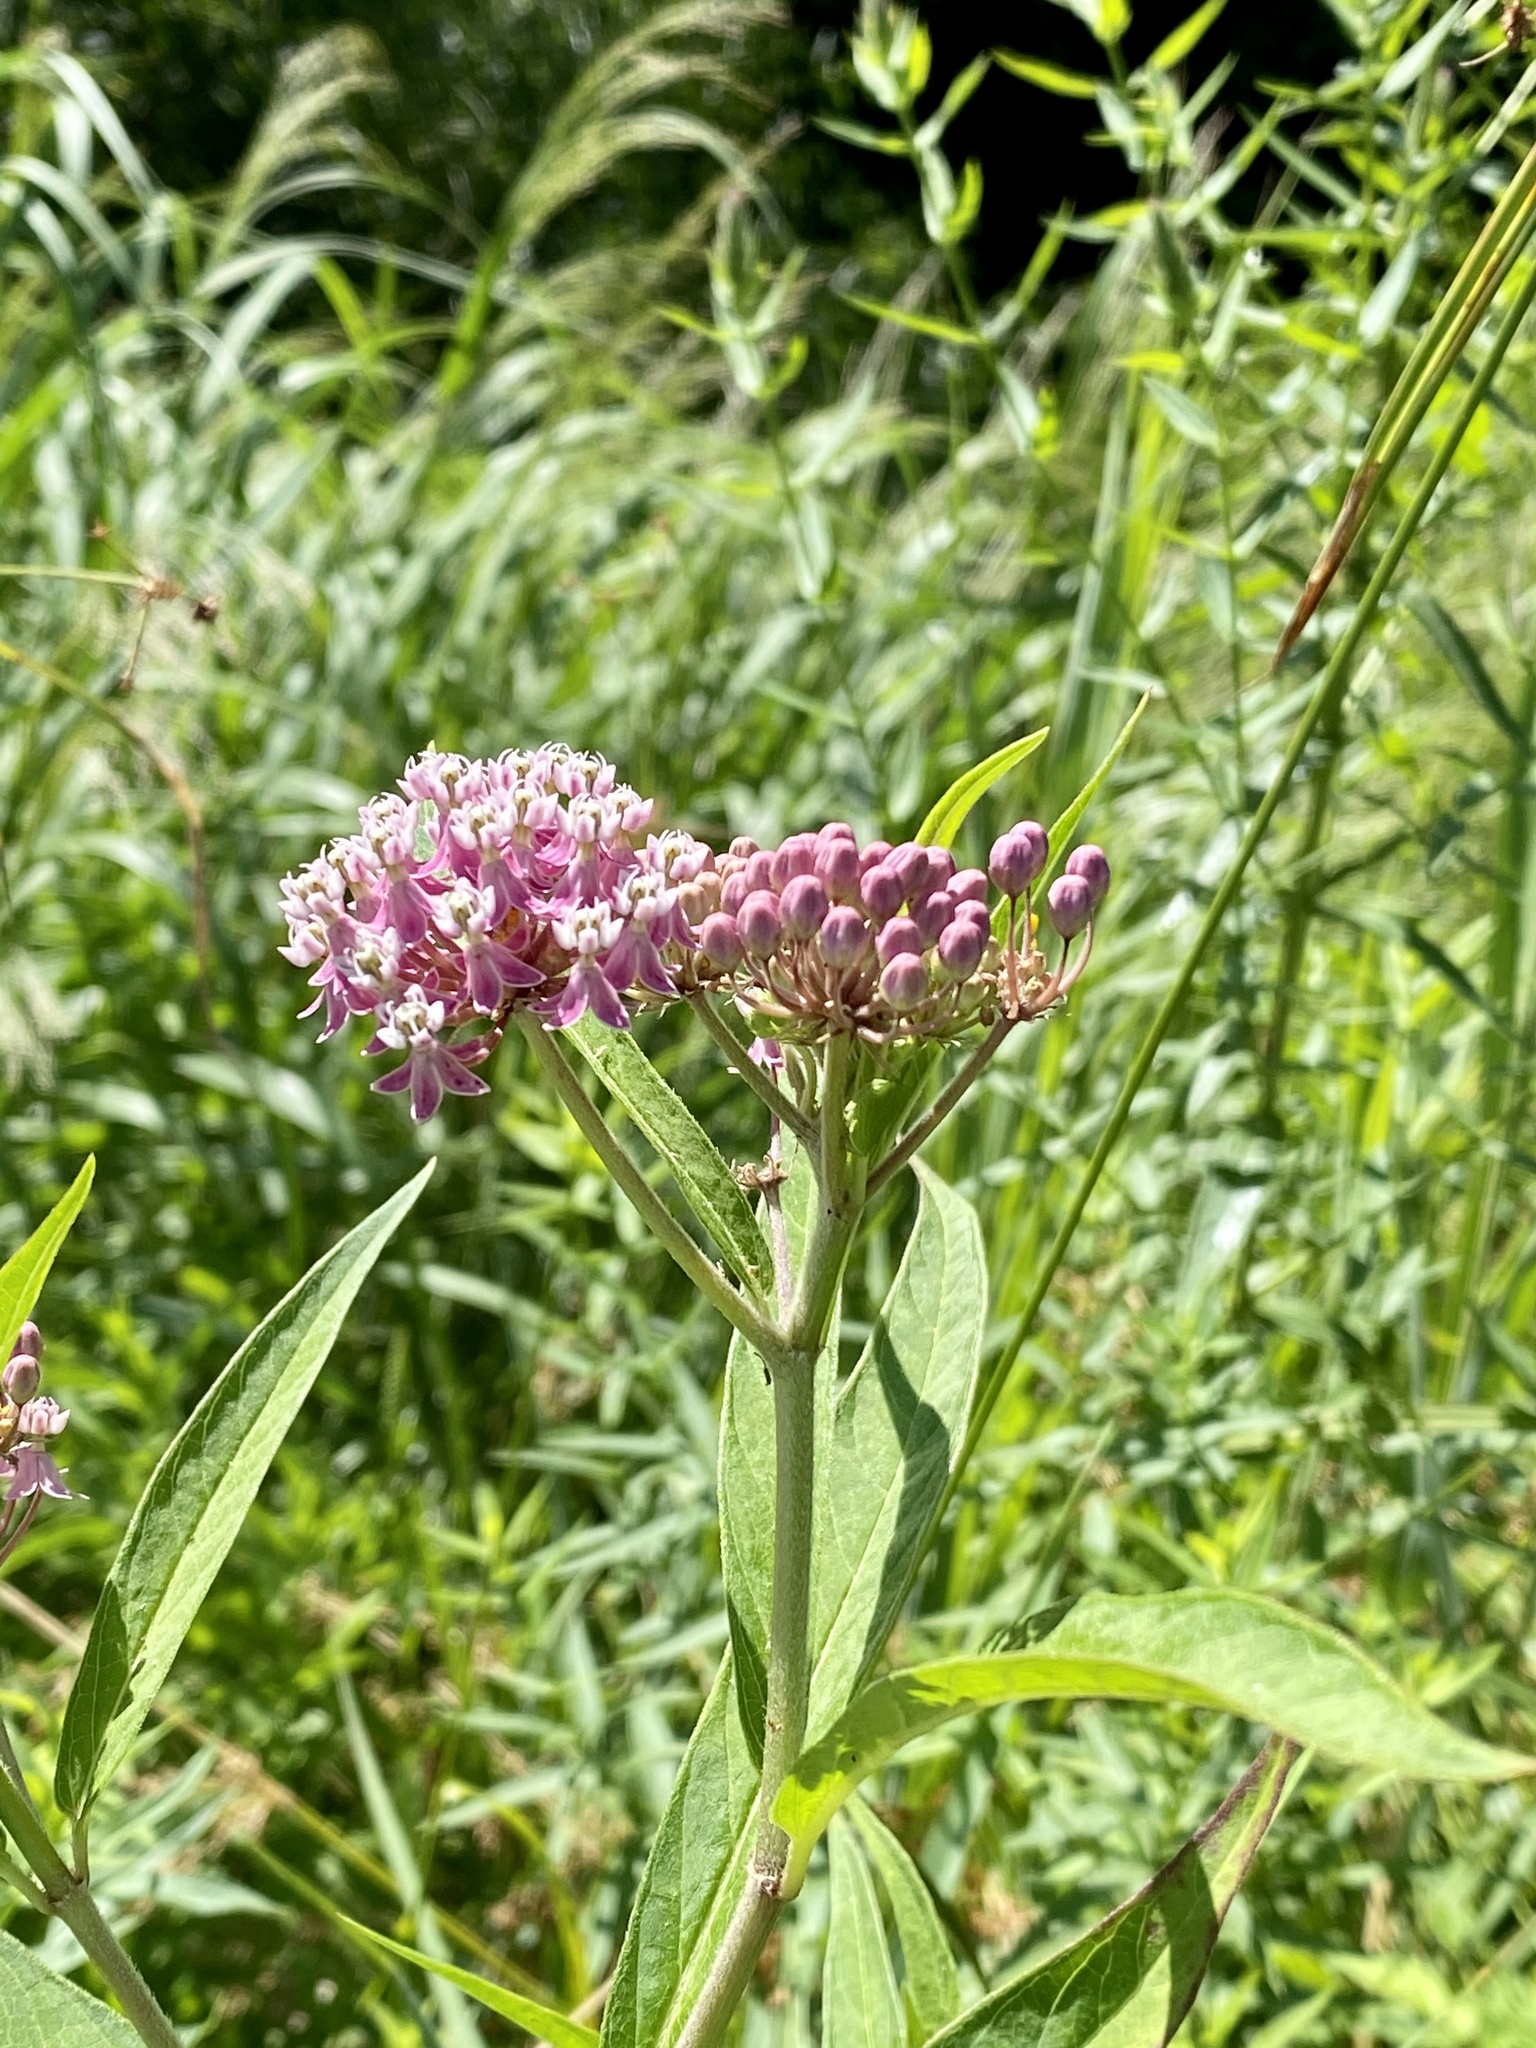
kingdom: Plantae
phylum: Tracheophyta
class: Magnoliopsida
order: Gentianales
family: Apocynaceae
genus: Asclepias
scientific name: Asclepias incarnata
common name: Swamp milkweed
